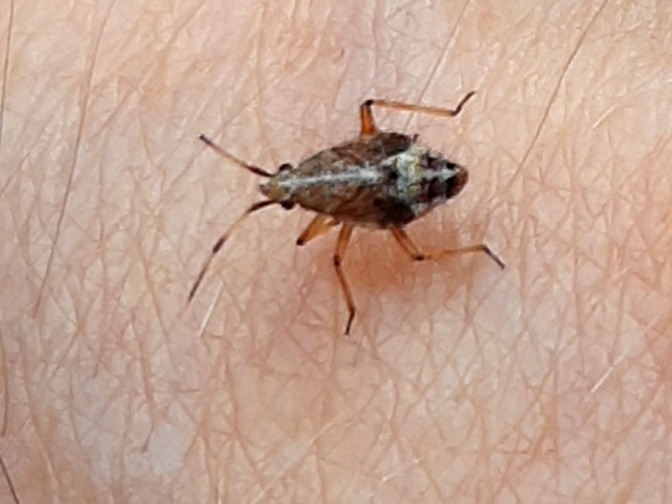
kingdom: Animalia
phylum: Arthropoda
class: Insecta
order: Hemiptera
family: Miridae
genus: Deraeocoris
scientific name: Deraeocoris flavilinea
